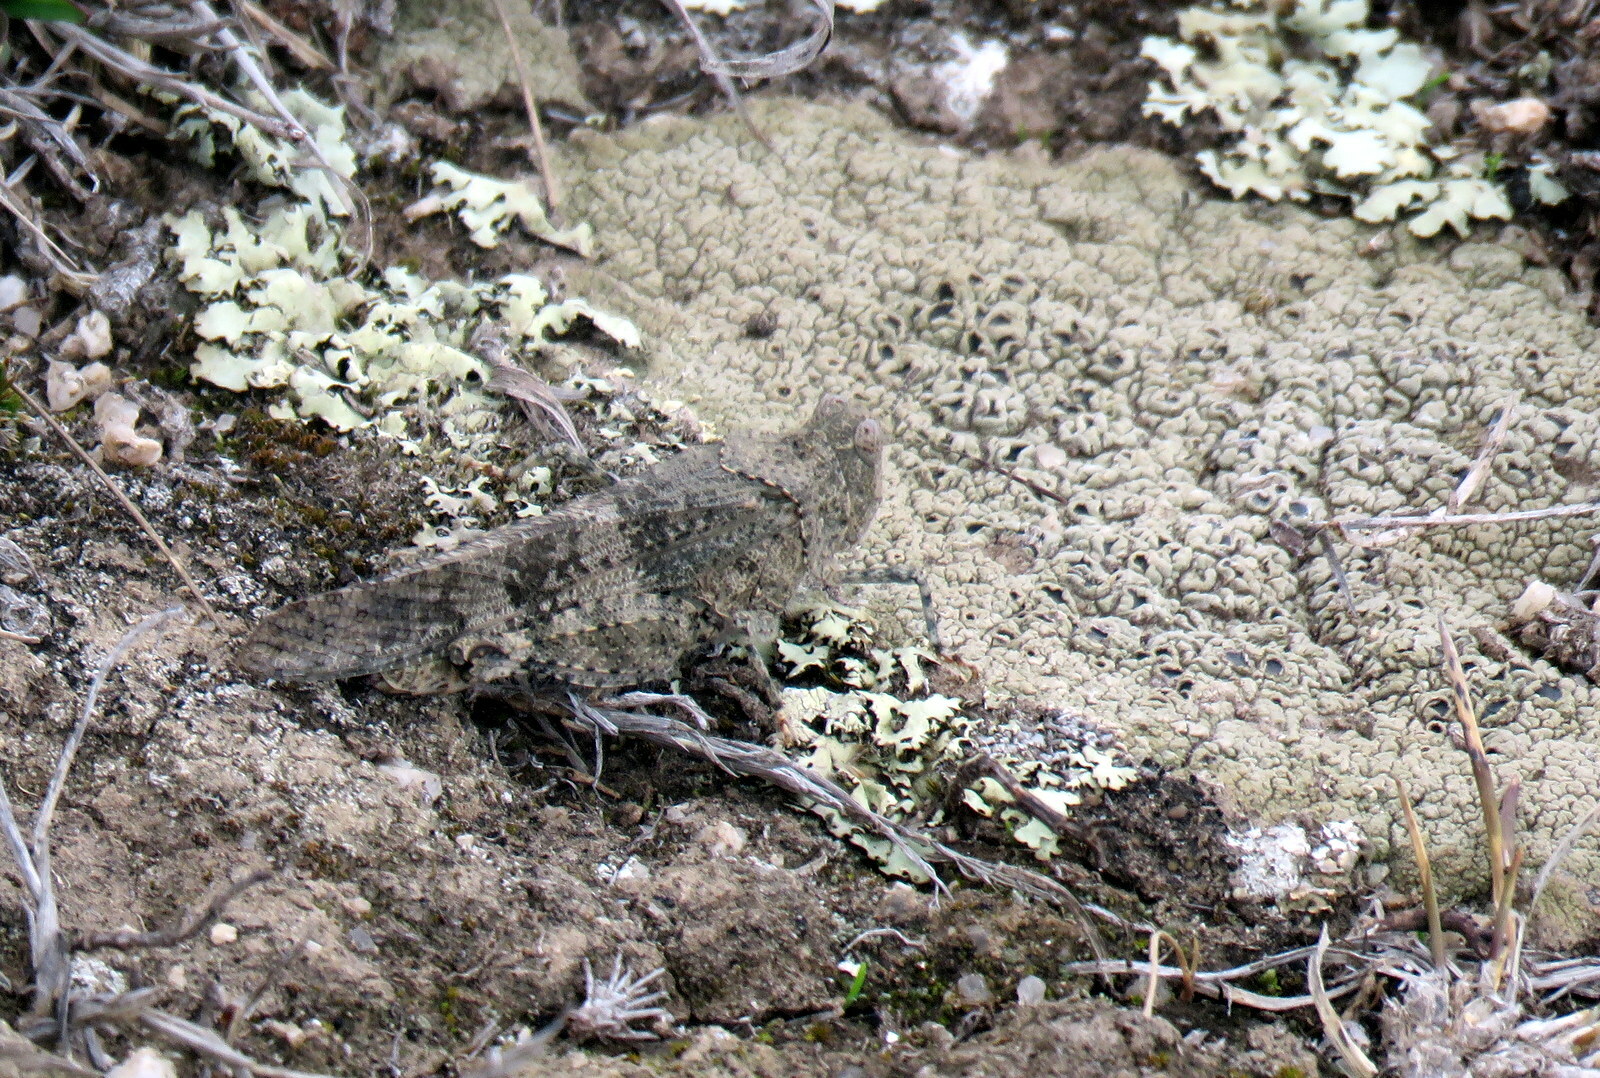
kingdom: Animalia
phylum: Arthropoda
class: Insecta
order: Orthoptera
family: Acrididae
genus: Trimerotropis
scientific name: Trimerotropis pallidipennis
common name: Pallid-winged grasshopper
